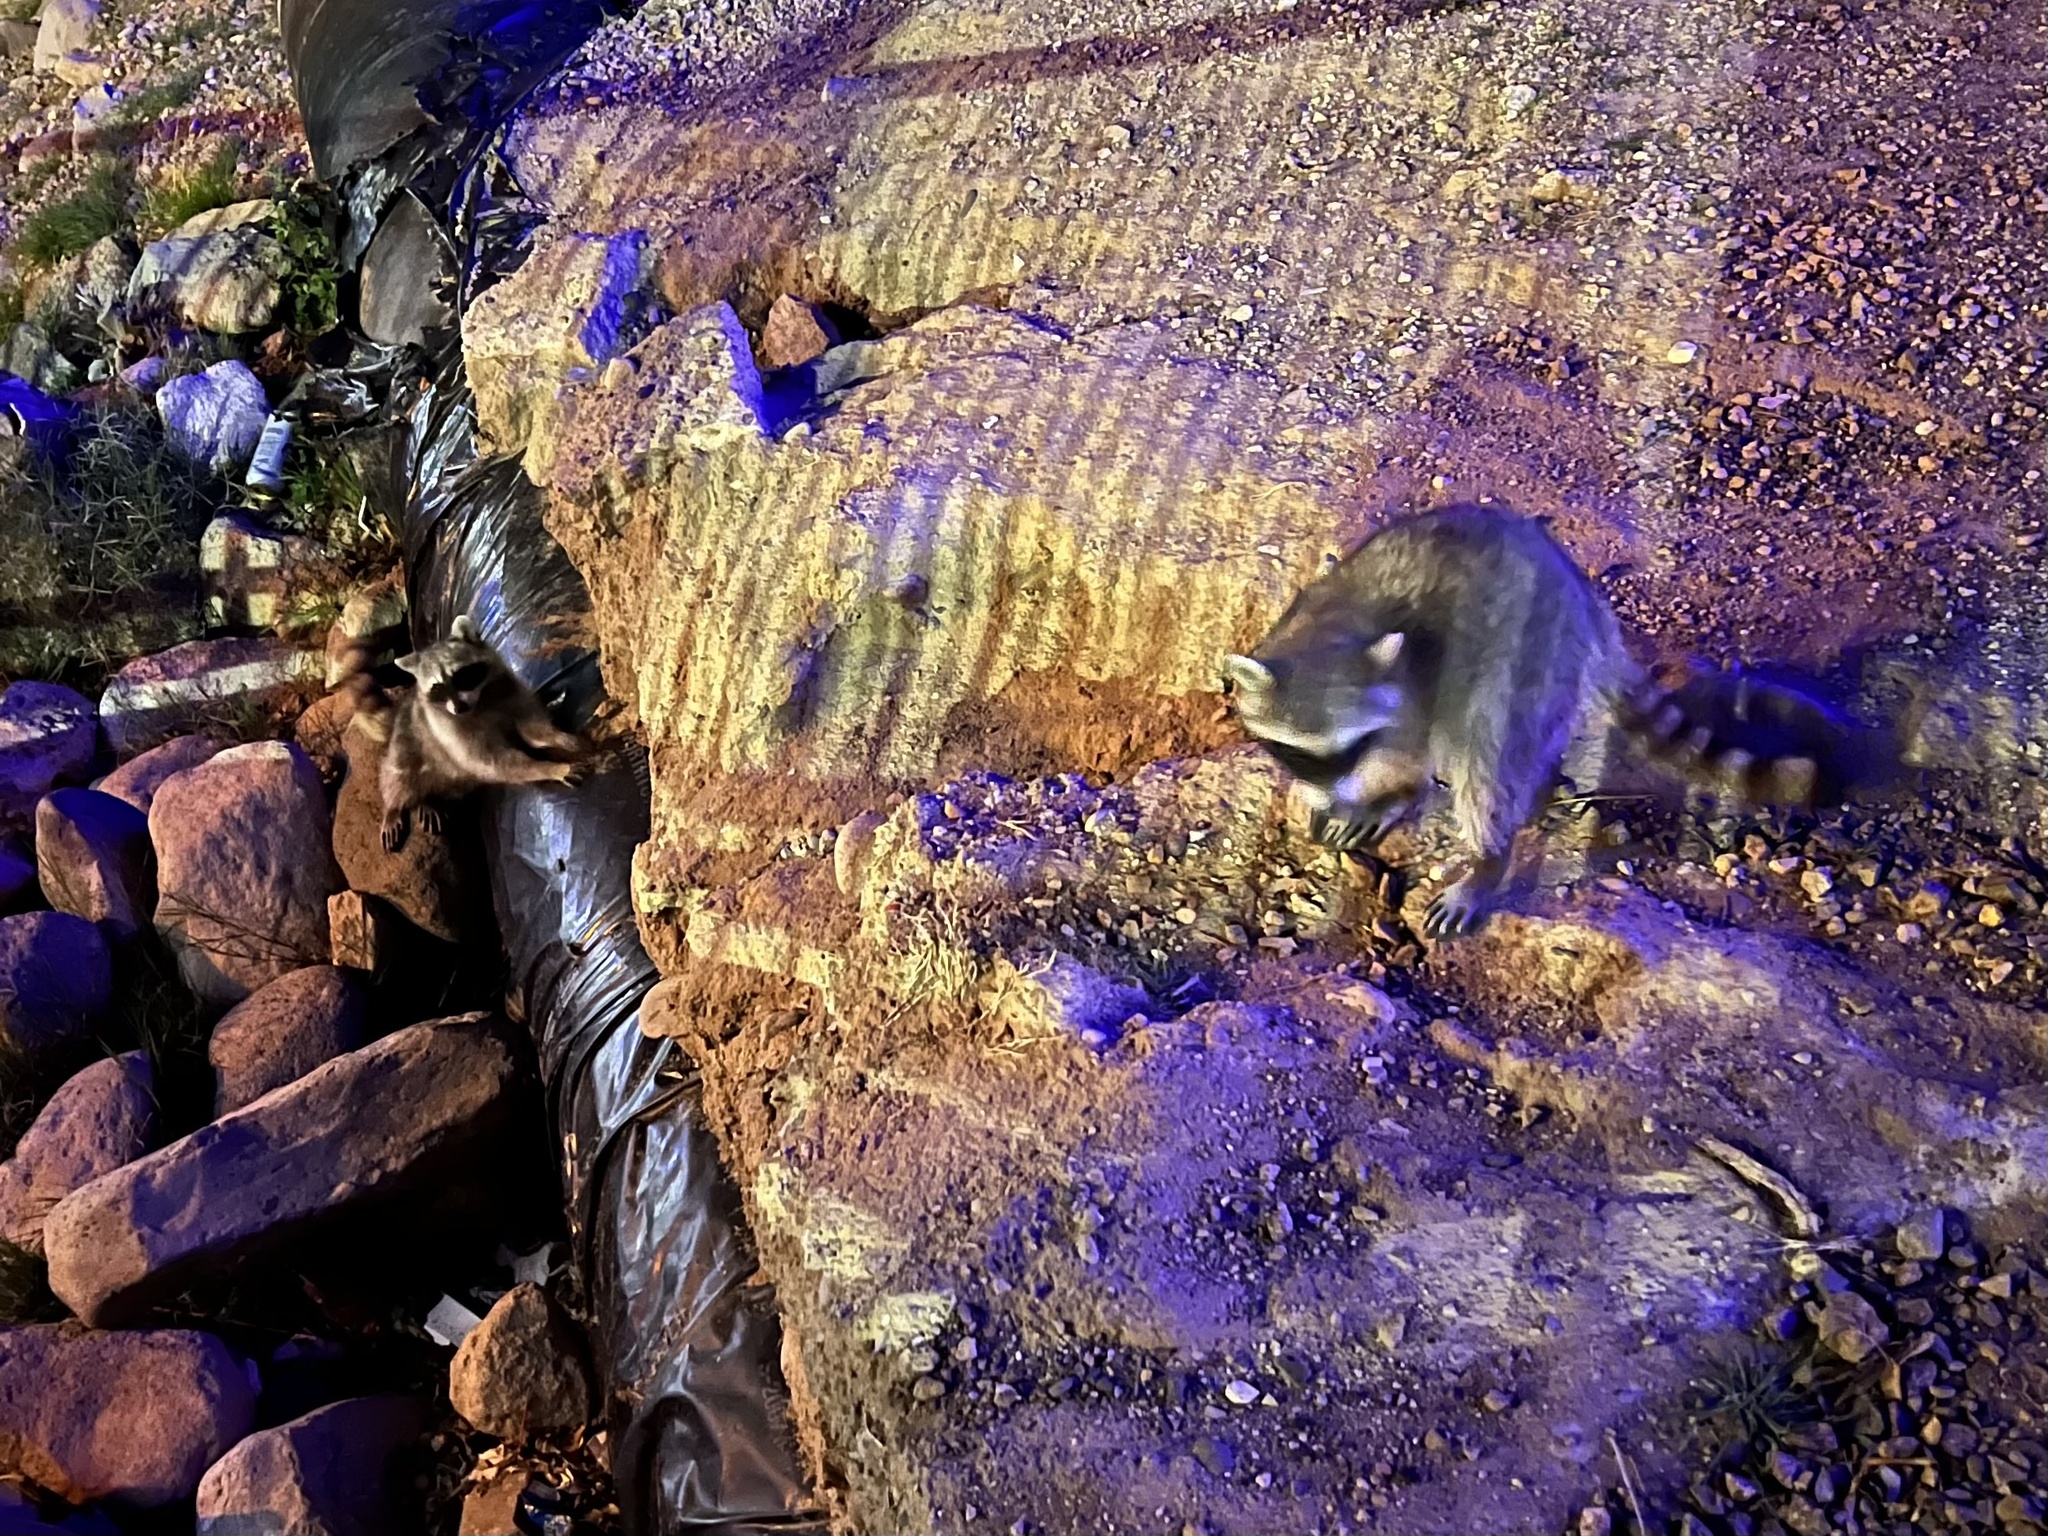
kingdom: Animalia
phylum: Chordata
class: Mammalia
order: Carnivora
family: Procyonidae
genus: Procyon
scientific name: Procyon lotor
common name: Raccoon
